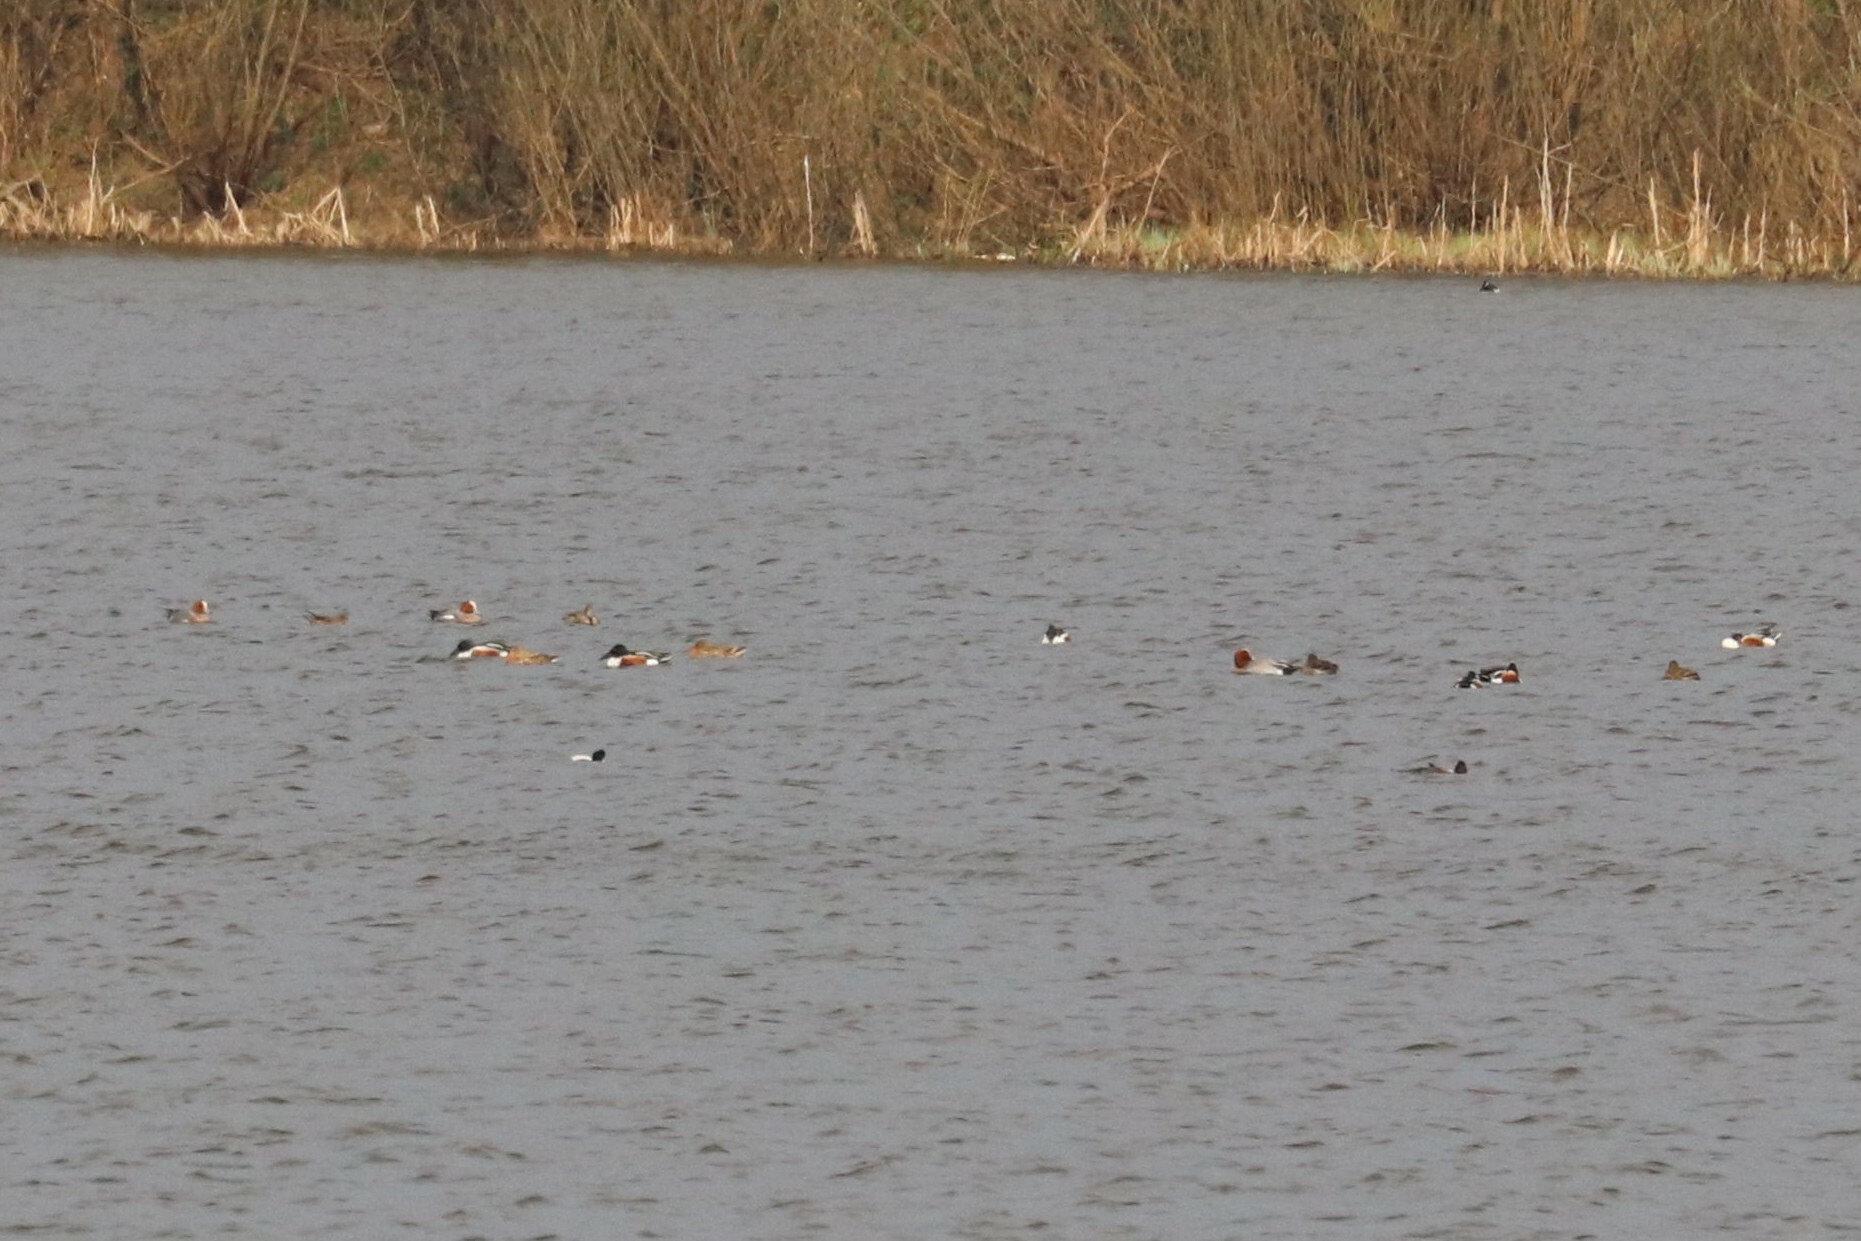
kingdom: Animalia
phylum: Chordata
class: Aves
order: Anseriformes
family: Anatidae
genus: Spatula
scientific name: Spatula clypeata
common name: Northern shoveler
